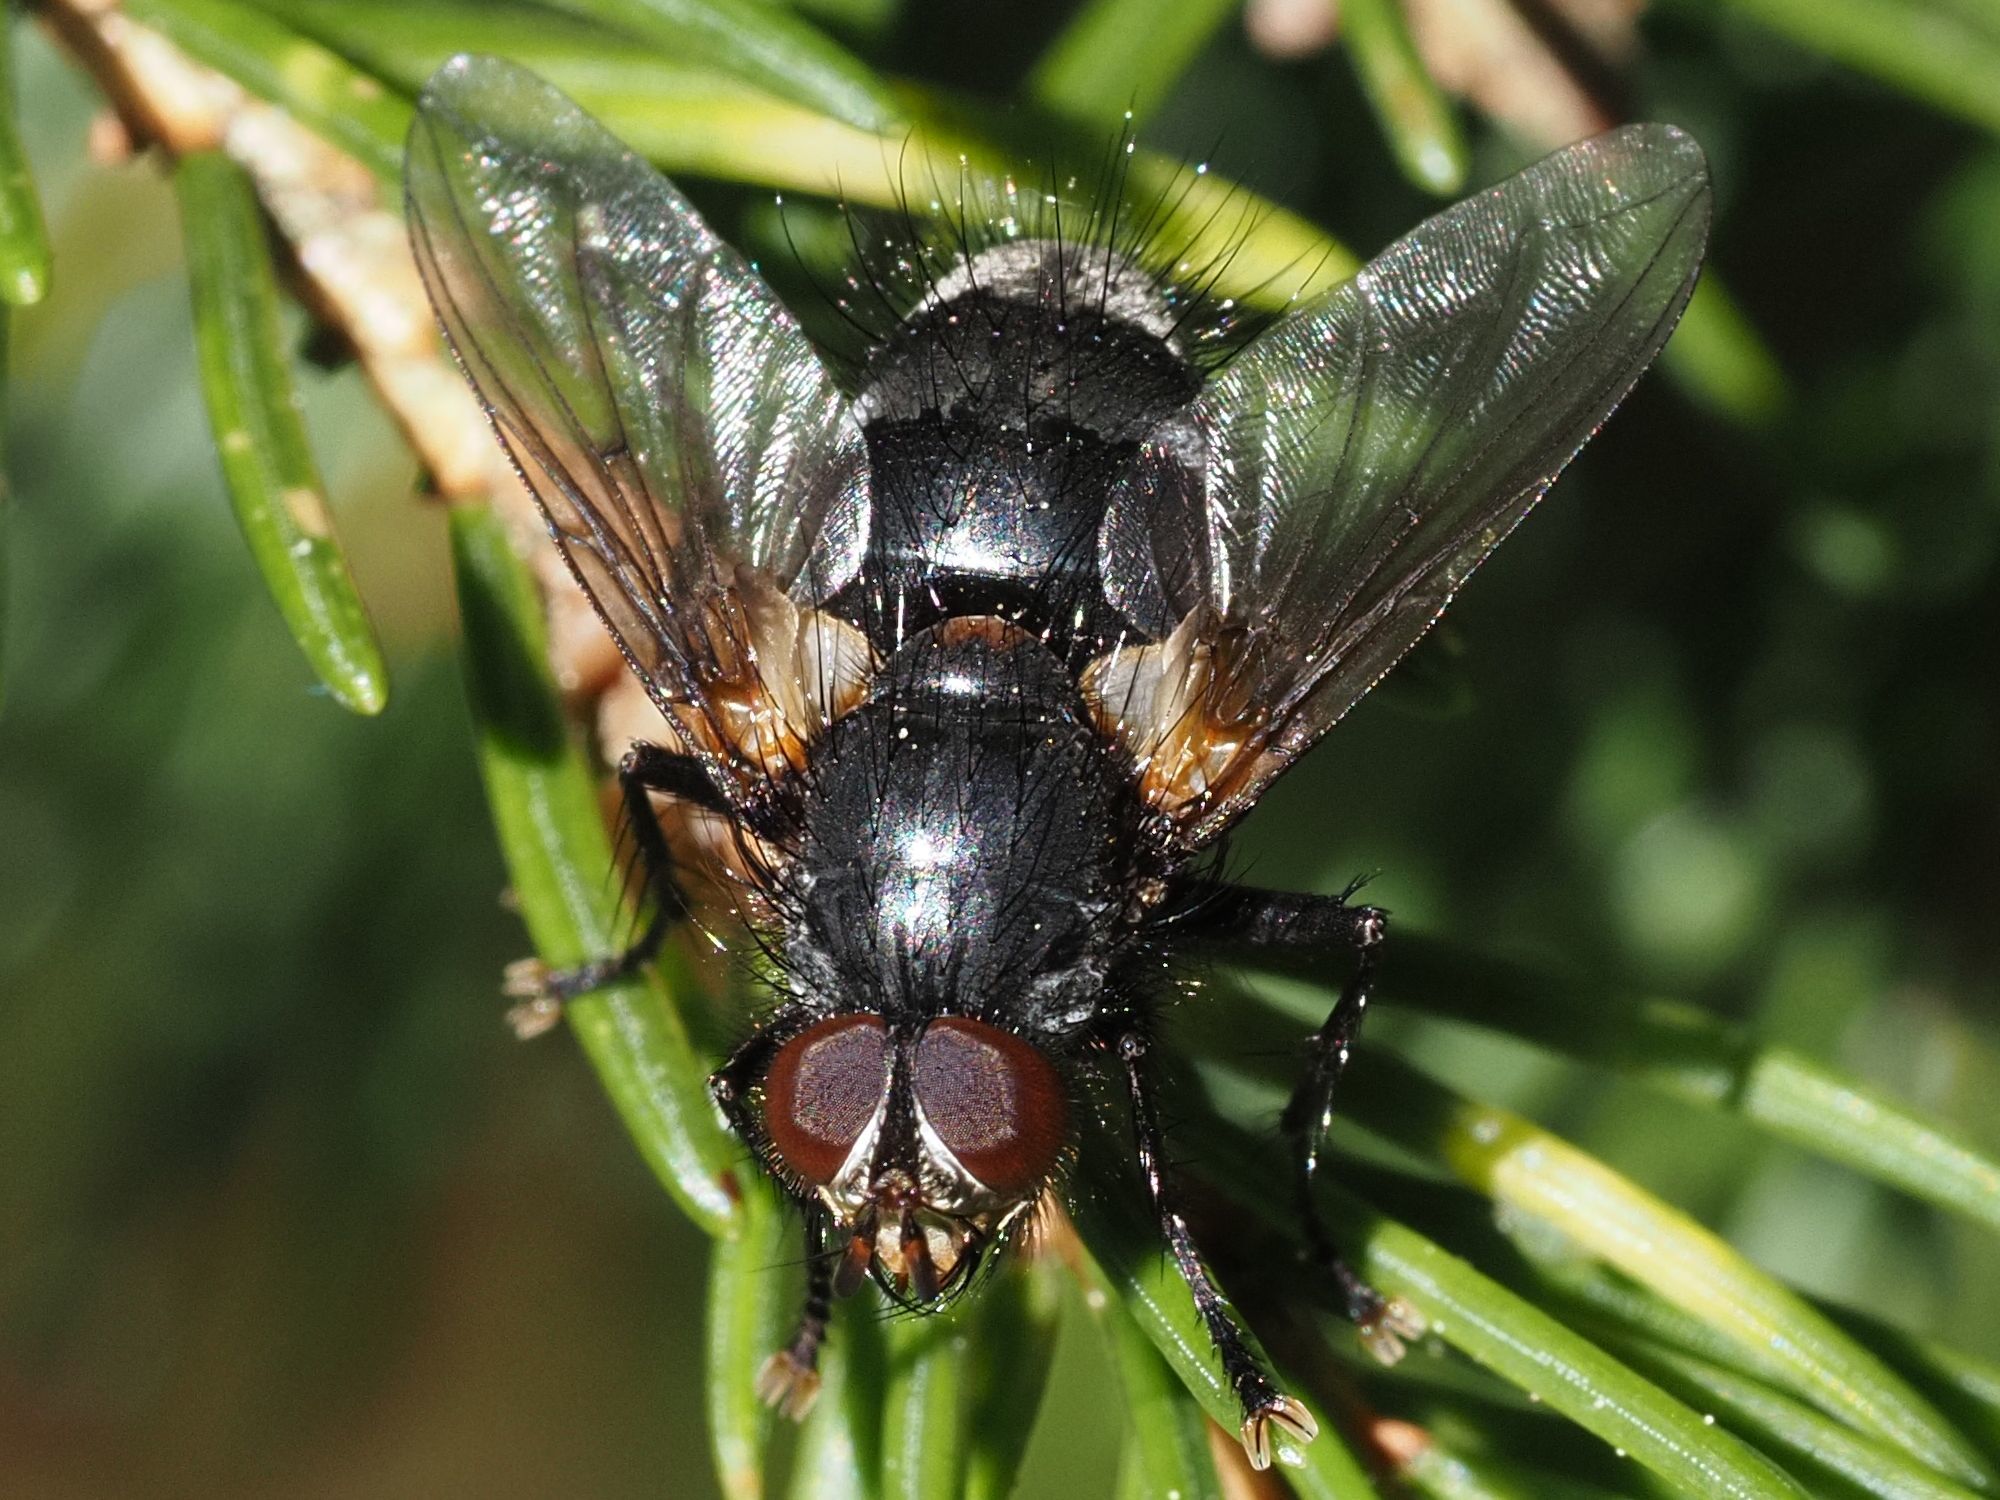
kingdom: Animalia
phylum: Arthropoda
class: Insecta
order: Diptera
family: Tachinidae
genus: Panzeria
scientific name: Panzeria rudis
